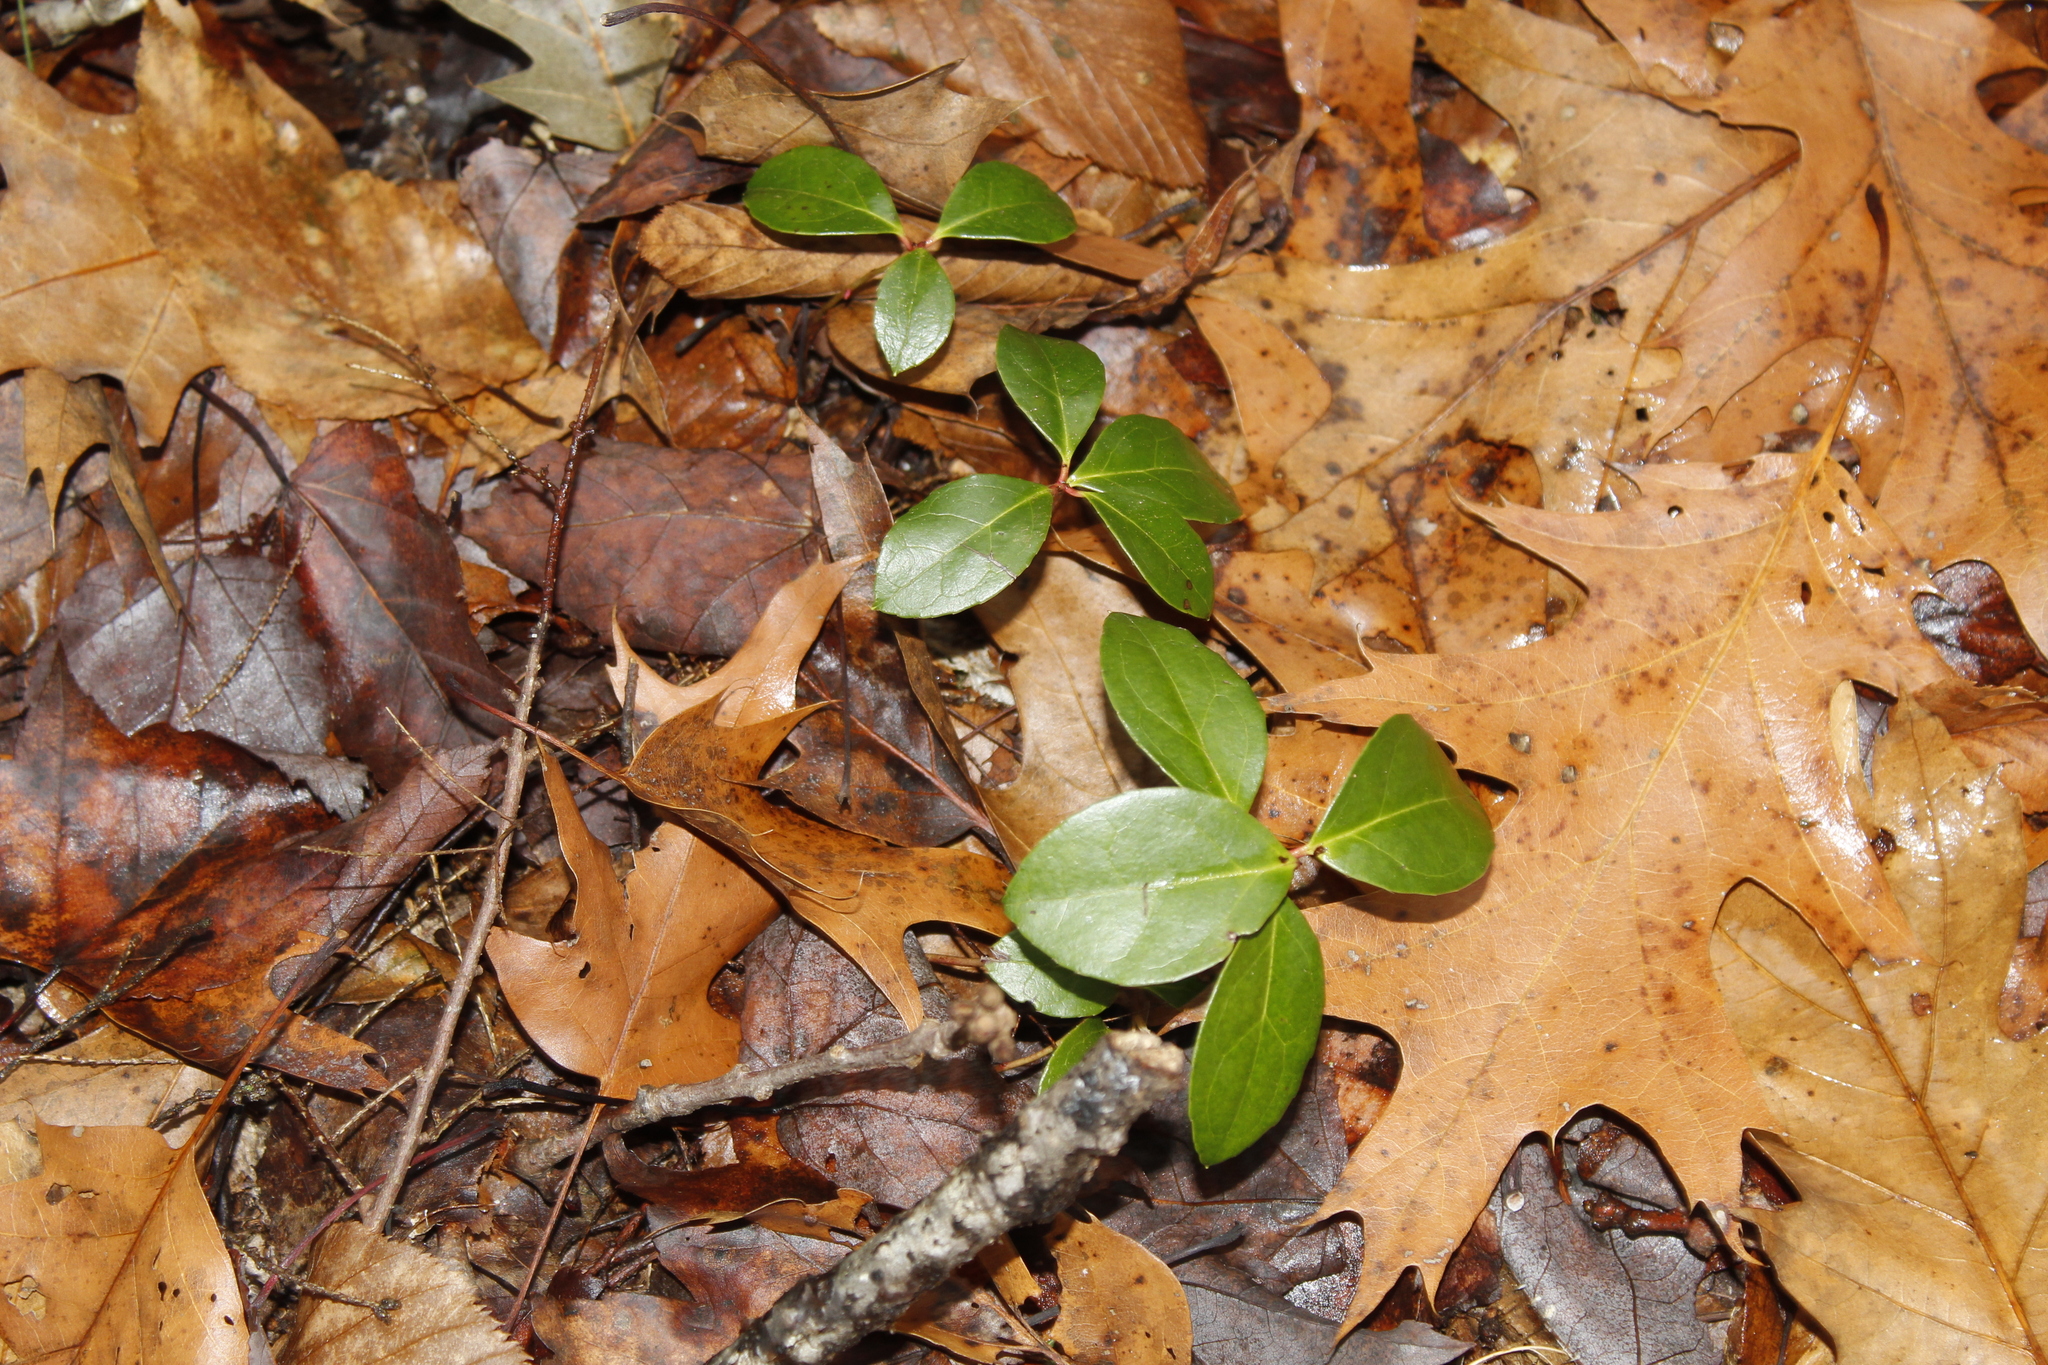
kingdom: Plantae
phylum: Tracheophyta
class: Magnoliopsida
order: Ericales
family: Ericaceae
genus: Gaultheria
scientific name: Gaultheria procumbens
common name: Checkerberry
